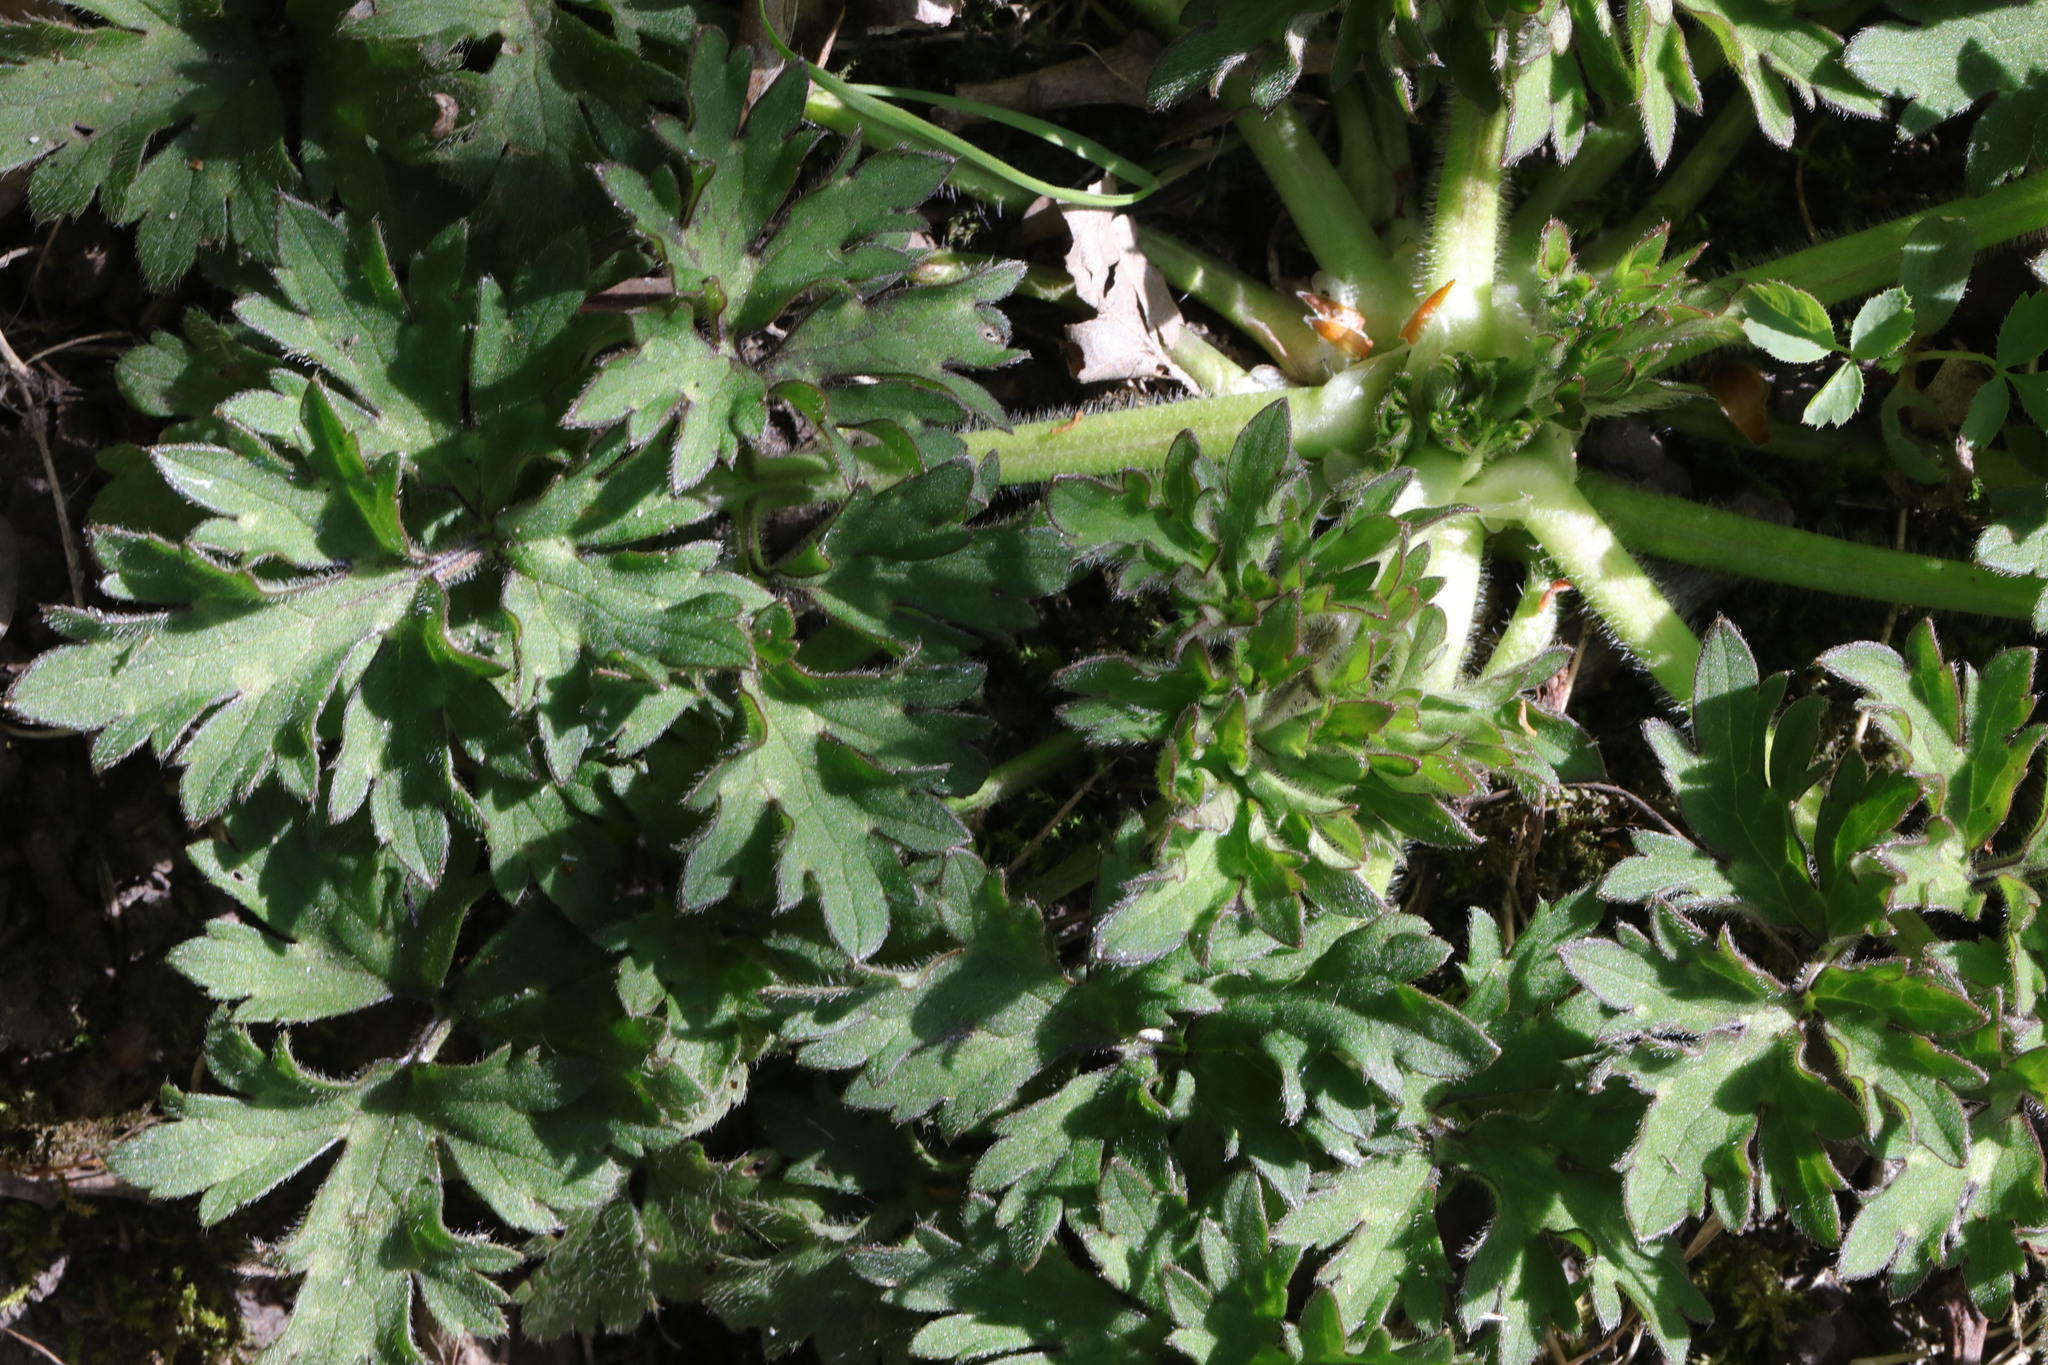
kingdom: Plantae
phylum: Tracheophyta
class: Magnoliopsida
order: Ranunculales
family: Ranunculaceae
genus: Ranunculus
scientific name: Ranunculus repens
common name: Creeping buttercup
